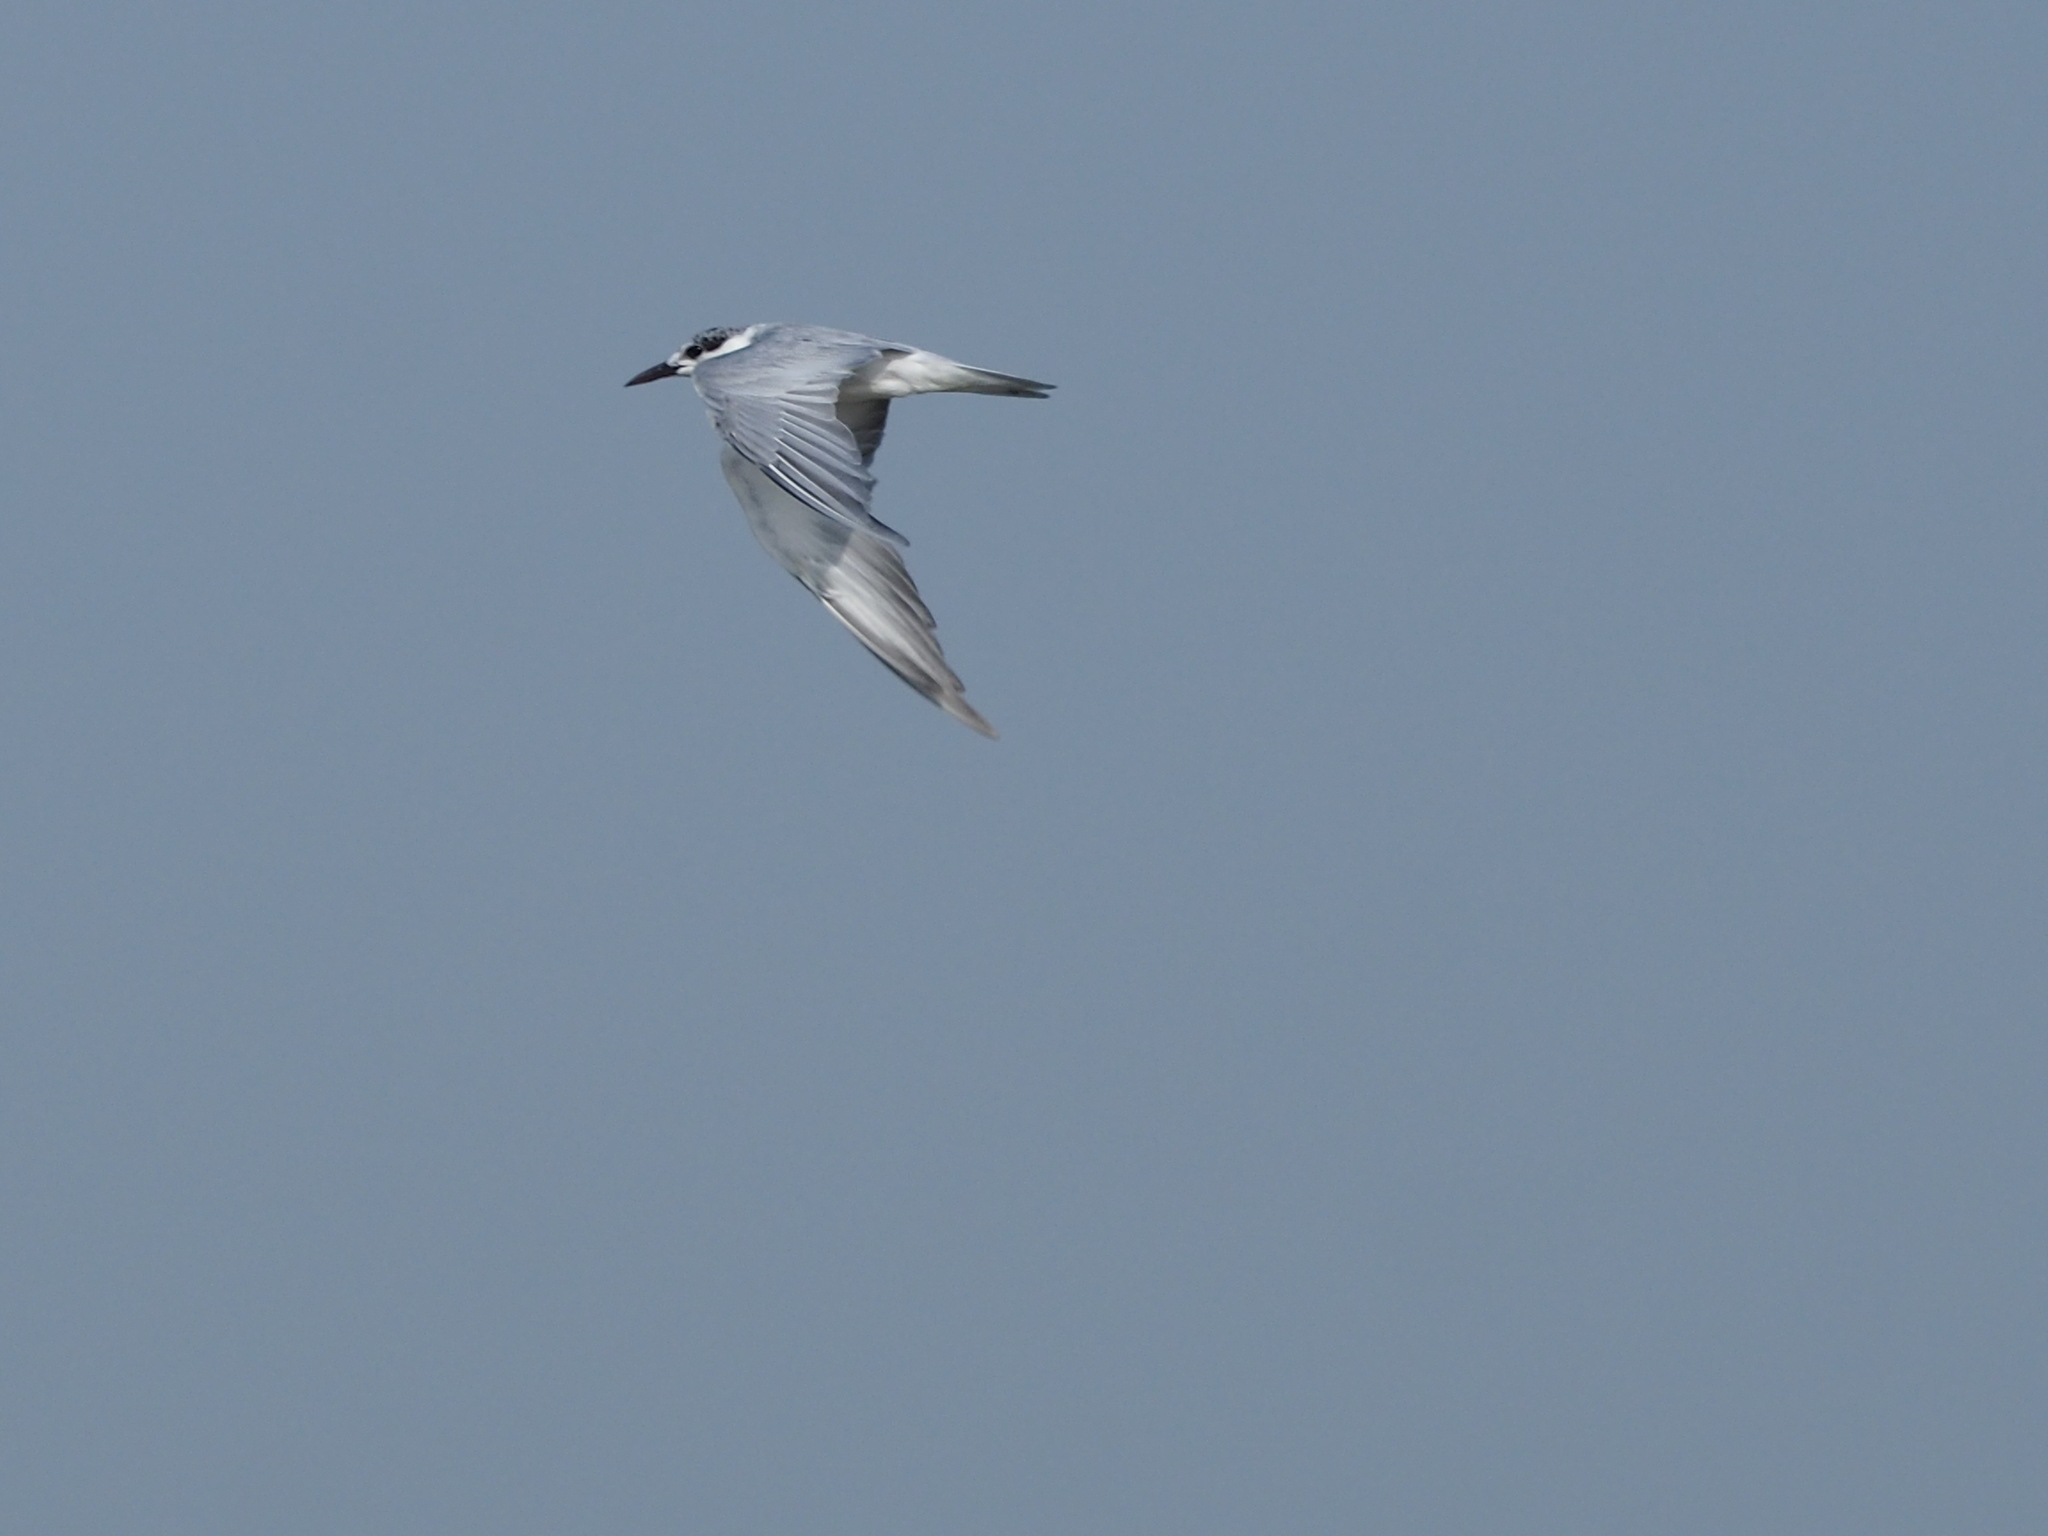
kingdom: Animalia
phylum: Chordata
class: Aves
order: Charadriiformes
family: Laridae
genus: Chlidonias
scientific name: Chlidonias hybrida
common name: Whiskered tern
